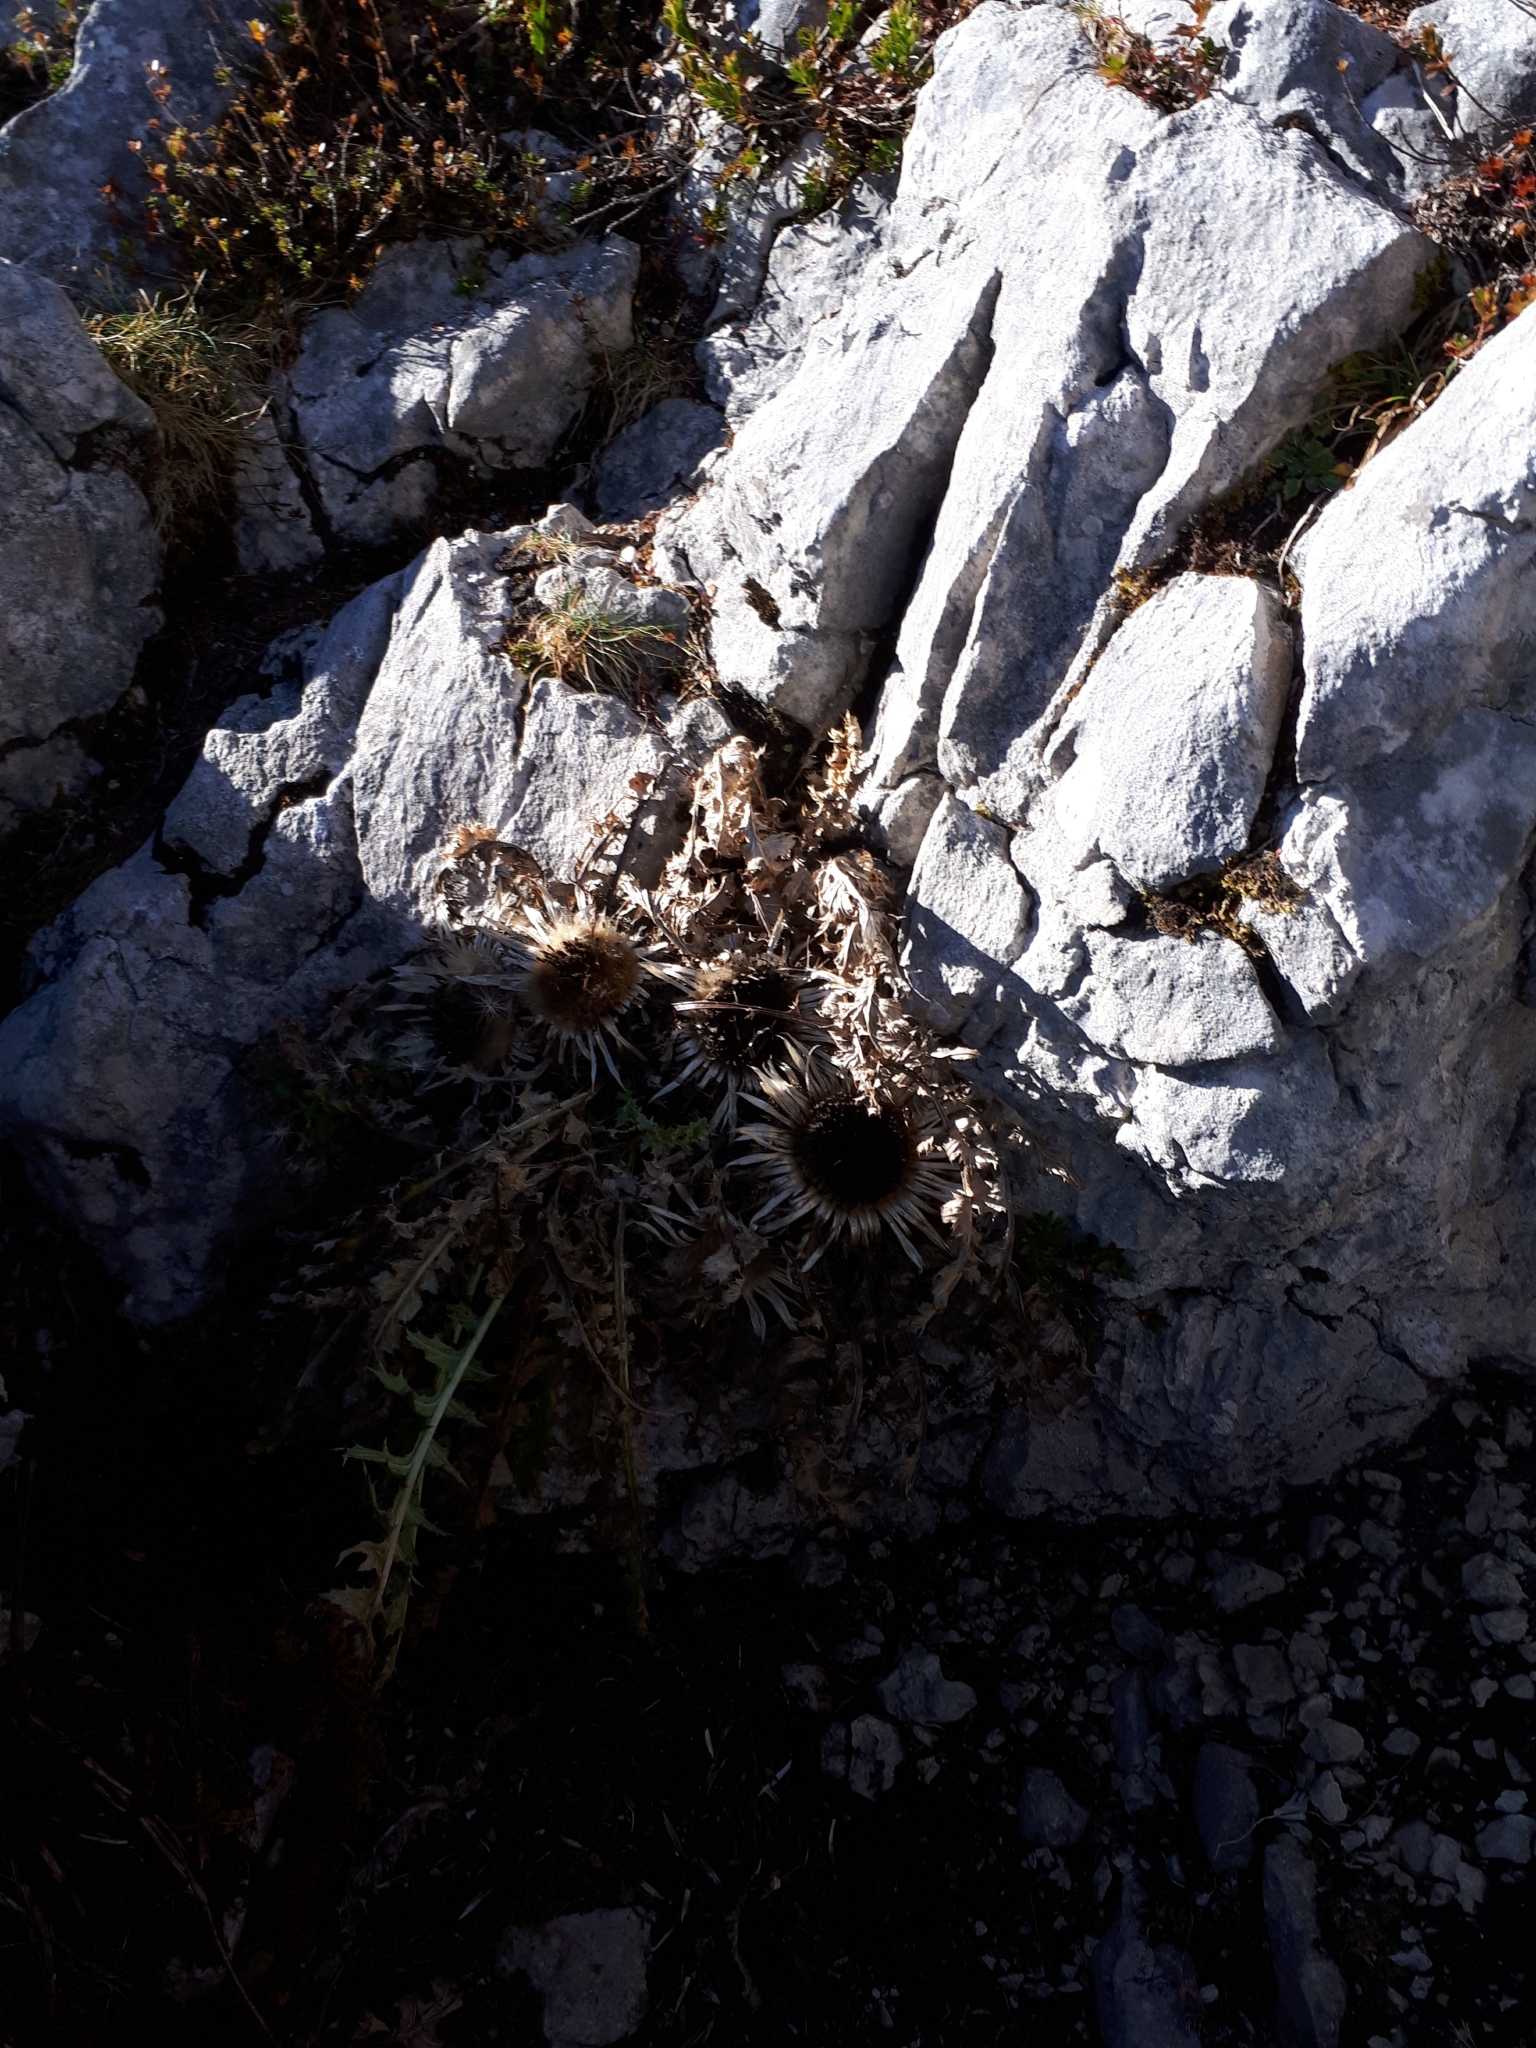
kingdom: Plantae
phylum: Tracheophyta
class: Magnoliopsida
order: Asterales
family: Asteraceae
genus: Carlina
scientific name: Carlina acaulis
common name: Stemless carline thistle
